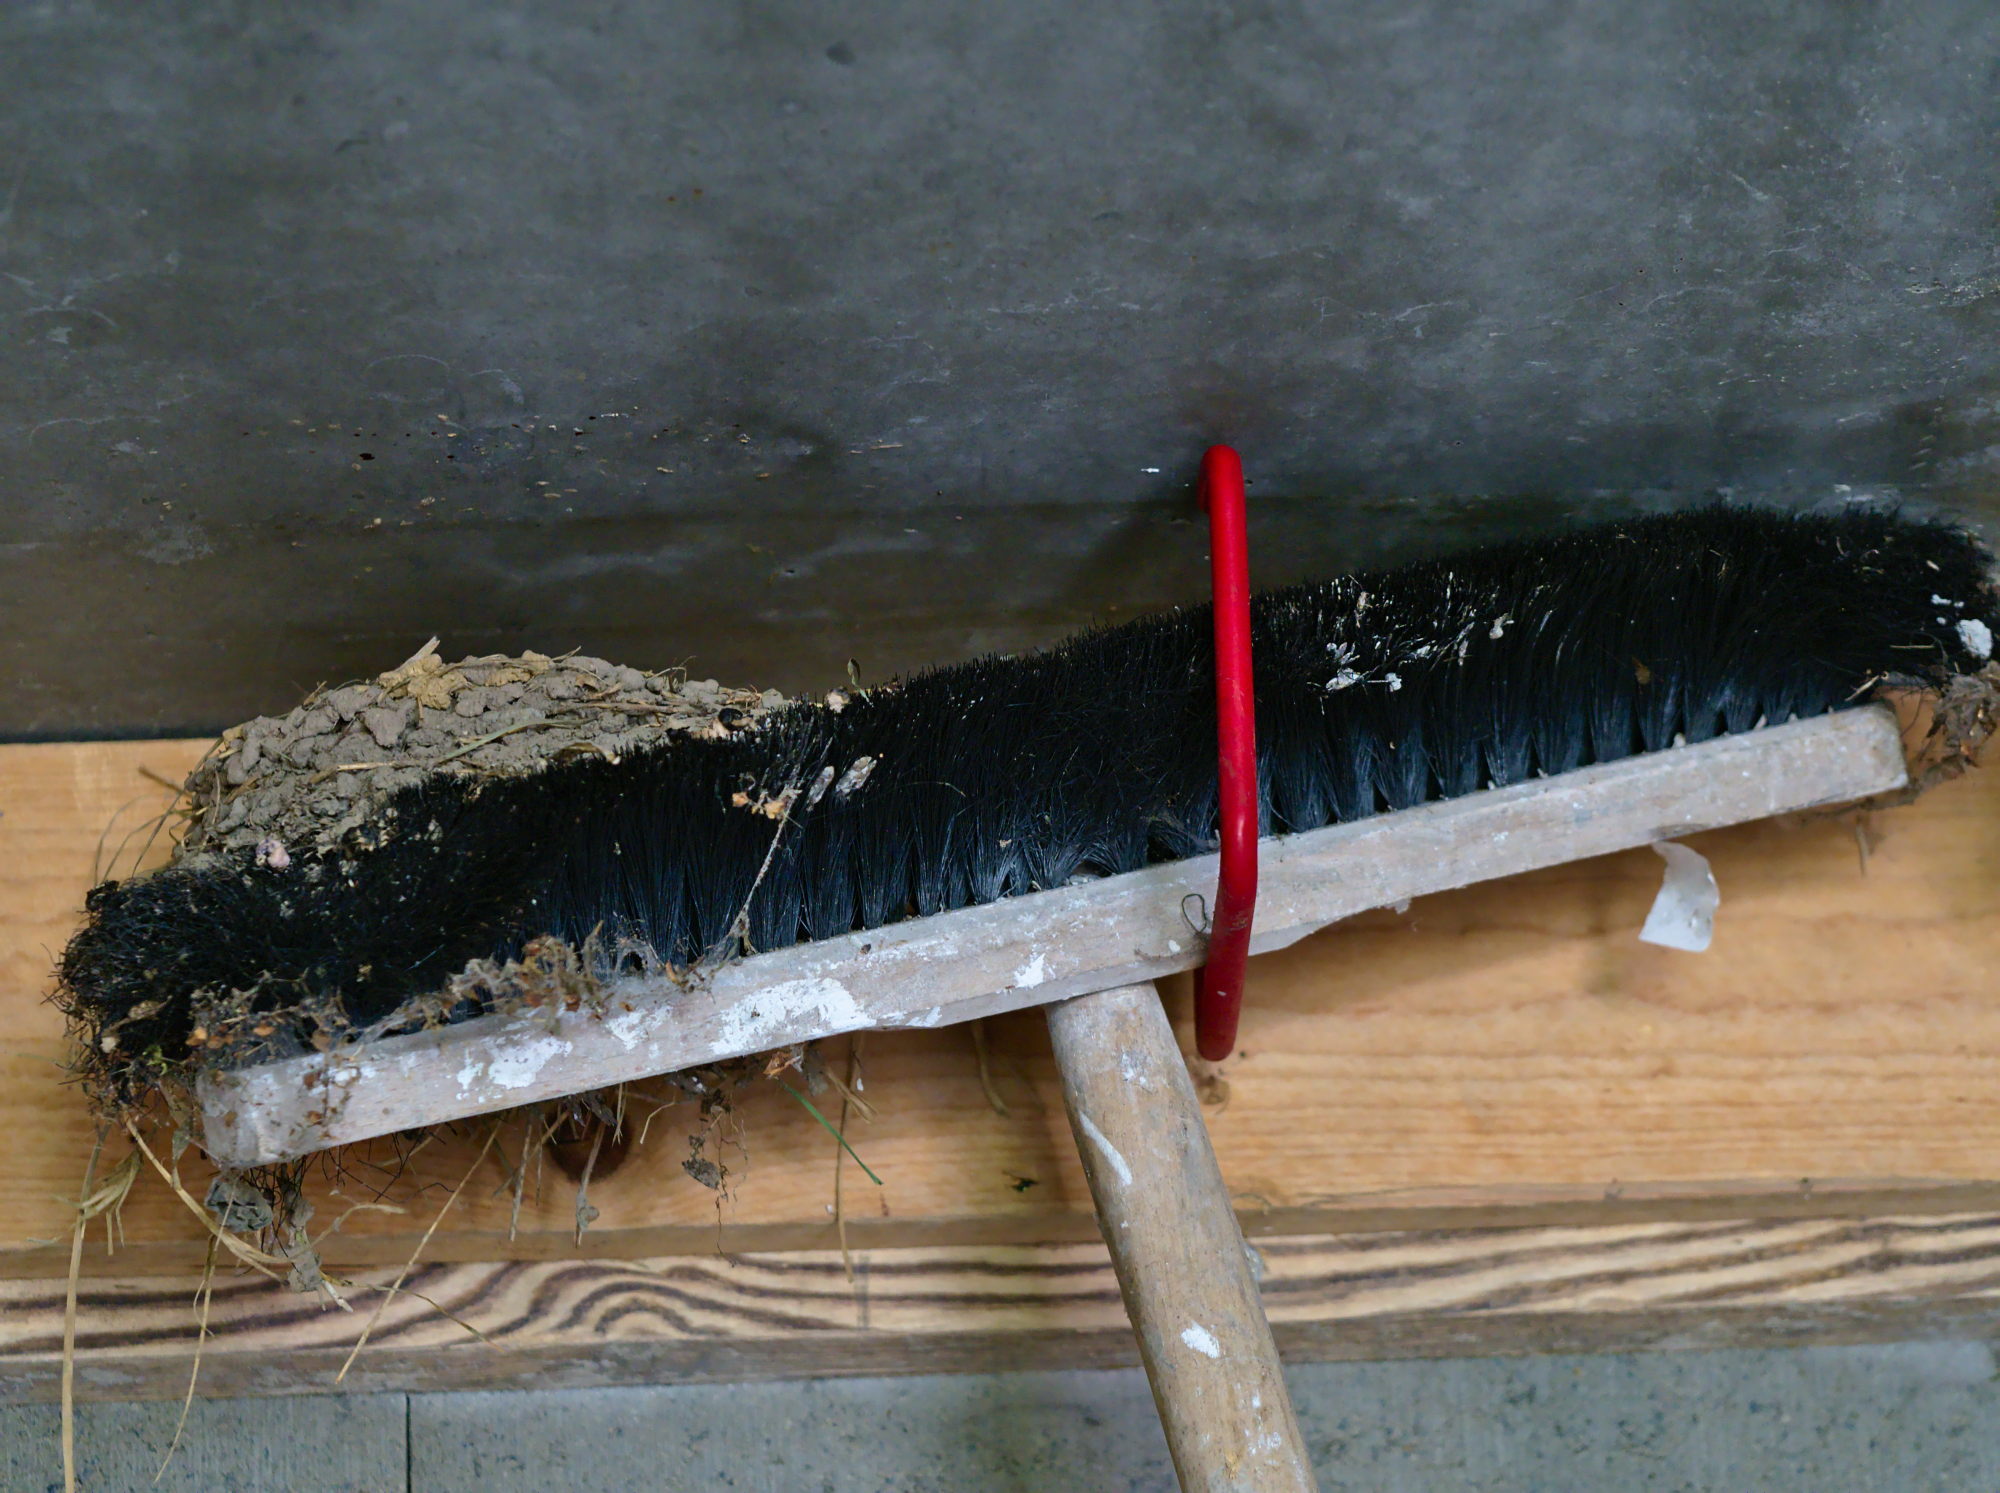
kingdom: Animalia
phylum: Chordata
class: Aves
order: Passeriformes
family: Hirundinidae
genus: Hirundo
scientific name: Hirundo rustica
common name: Barn swallow
